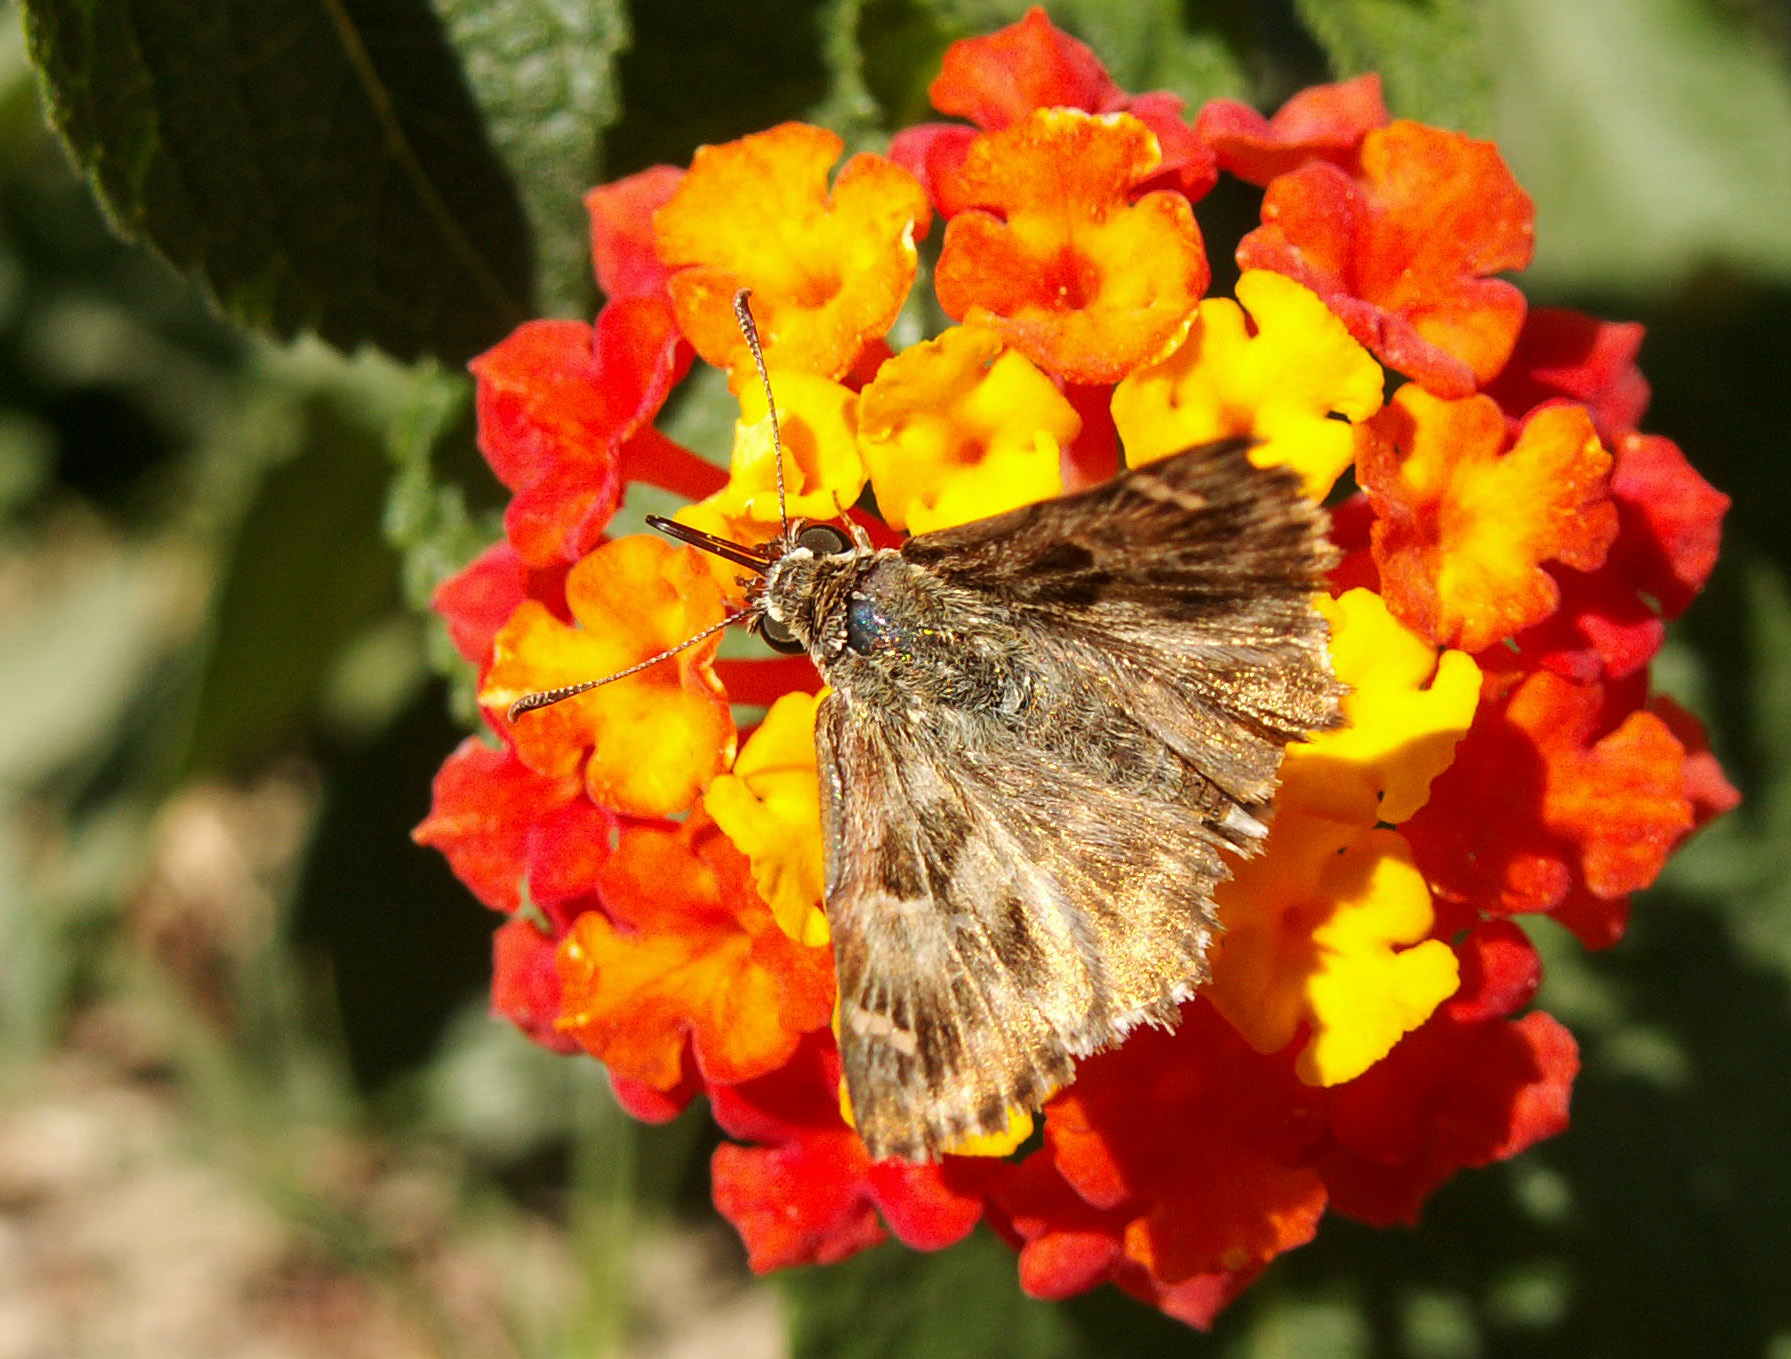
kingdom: Animalia
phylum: Arthropoda
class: Insecta
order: Lepidoptera
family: Hesperiidae
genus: Carcharodus
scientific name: Carcharodus alceae
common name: Mallow skipper
